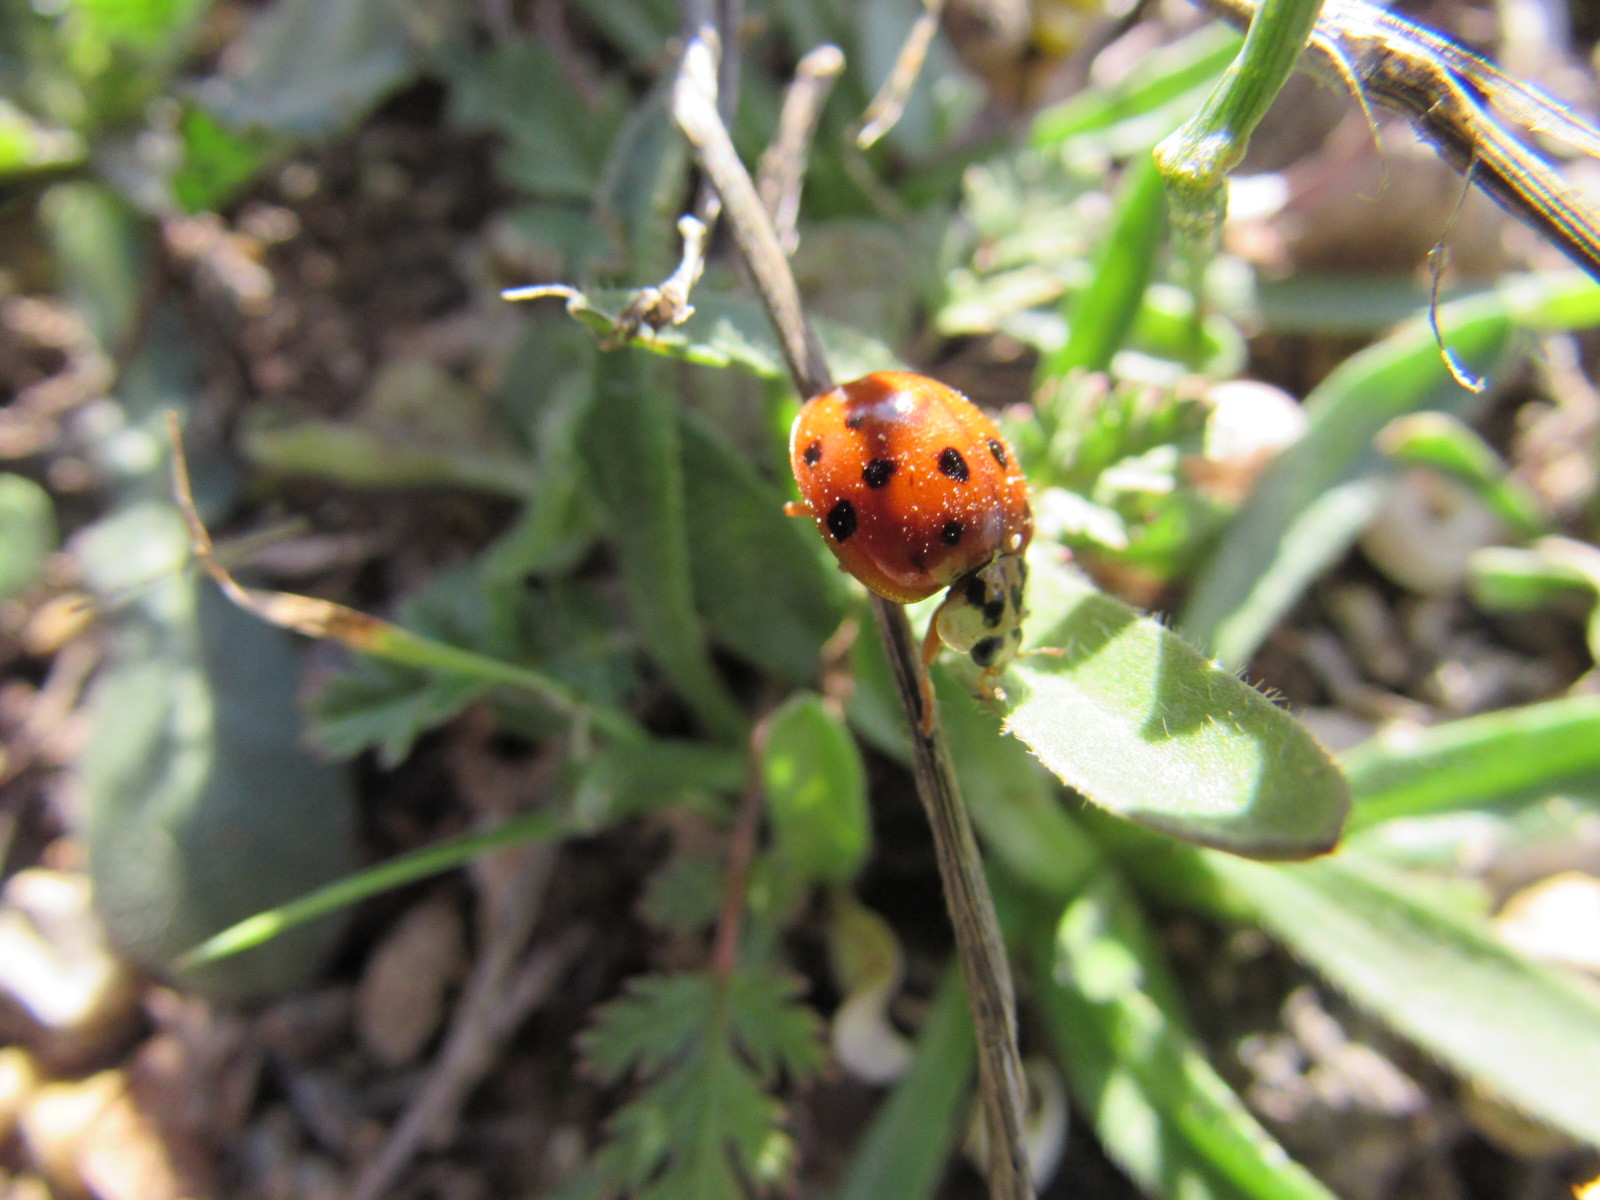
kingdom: Animalia
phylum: Arthropoda
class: Insecta
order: Coleoptera
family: Coccinellidae
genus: Harmonia
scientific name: Harmonia axyridis
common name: Harlequin ladybird
